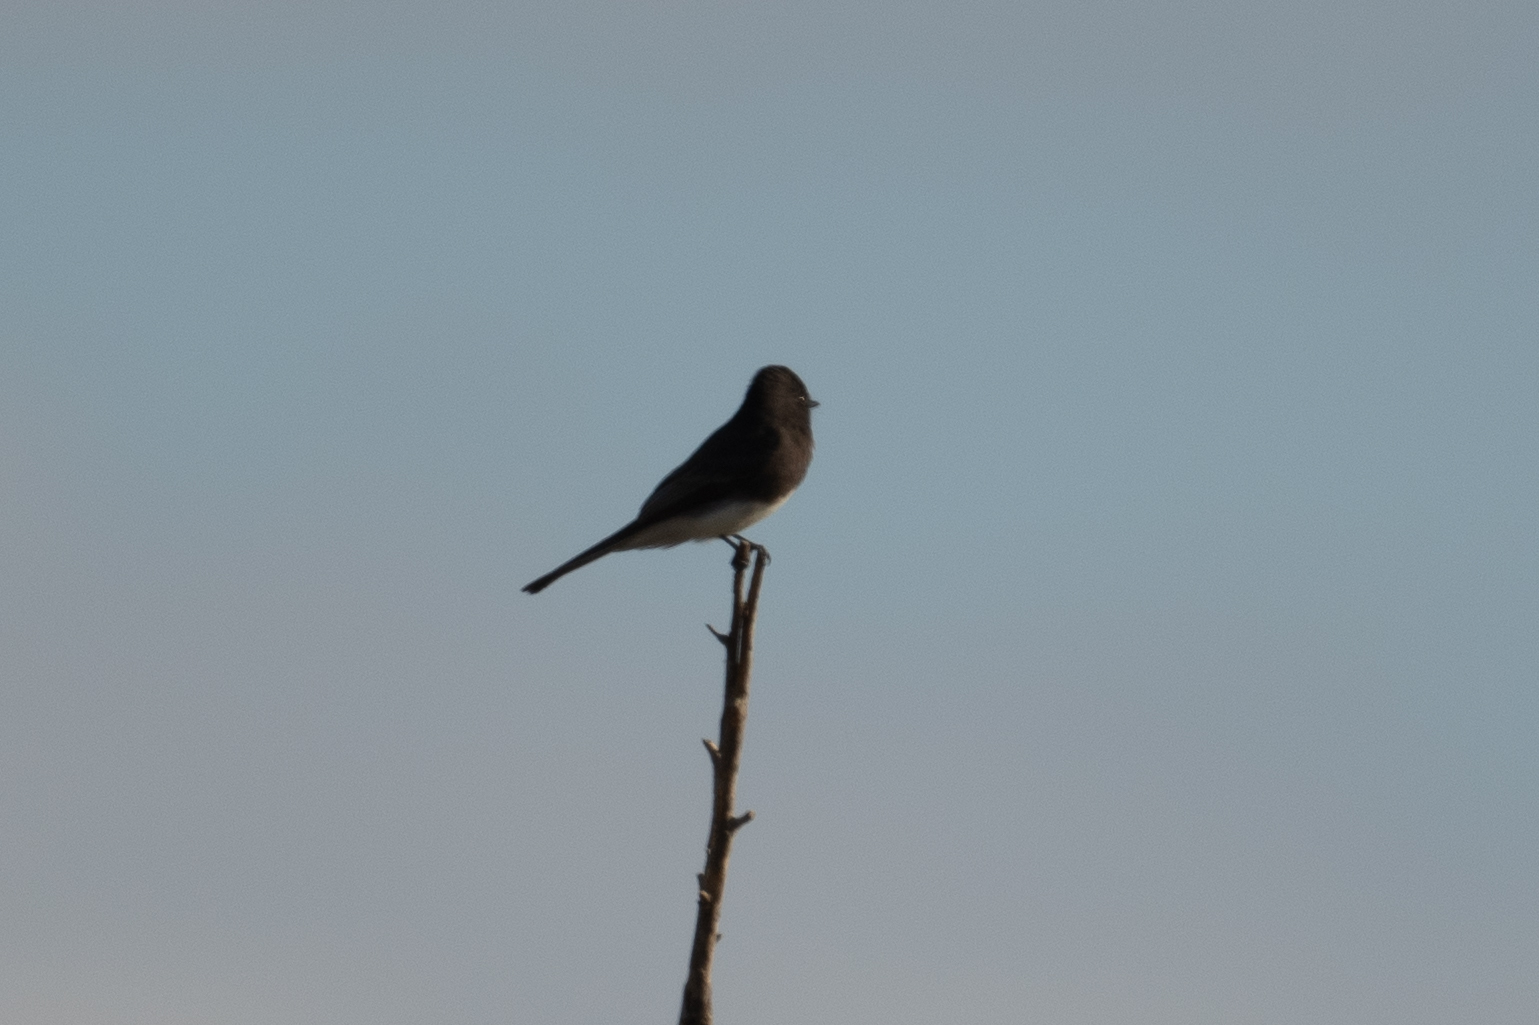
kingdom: Animalia
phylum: Chordata
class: Aves
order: Passeriformes
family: Tyrannidae
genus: Sayornis
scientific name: Sayornis nigricans
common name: Black phoebe
